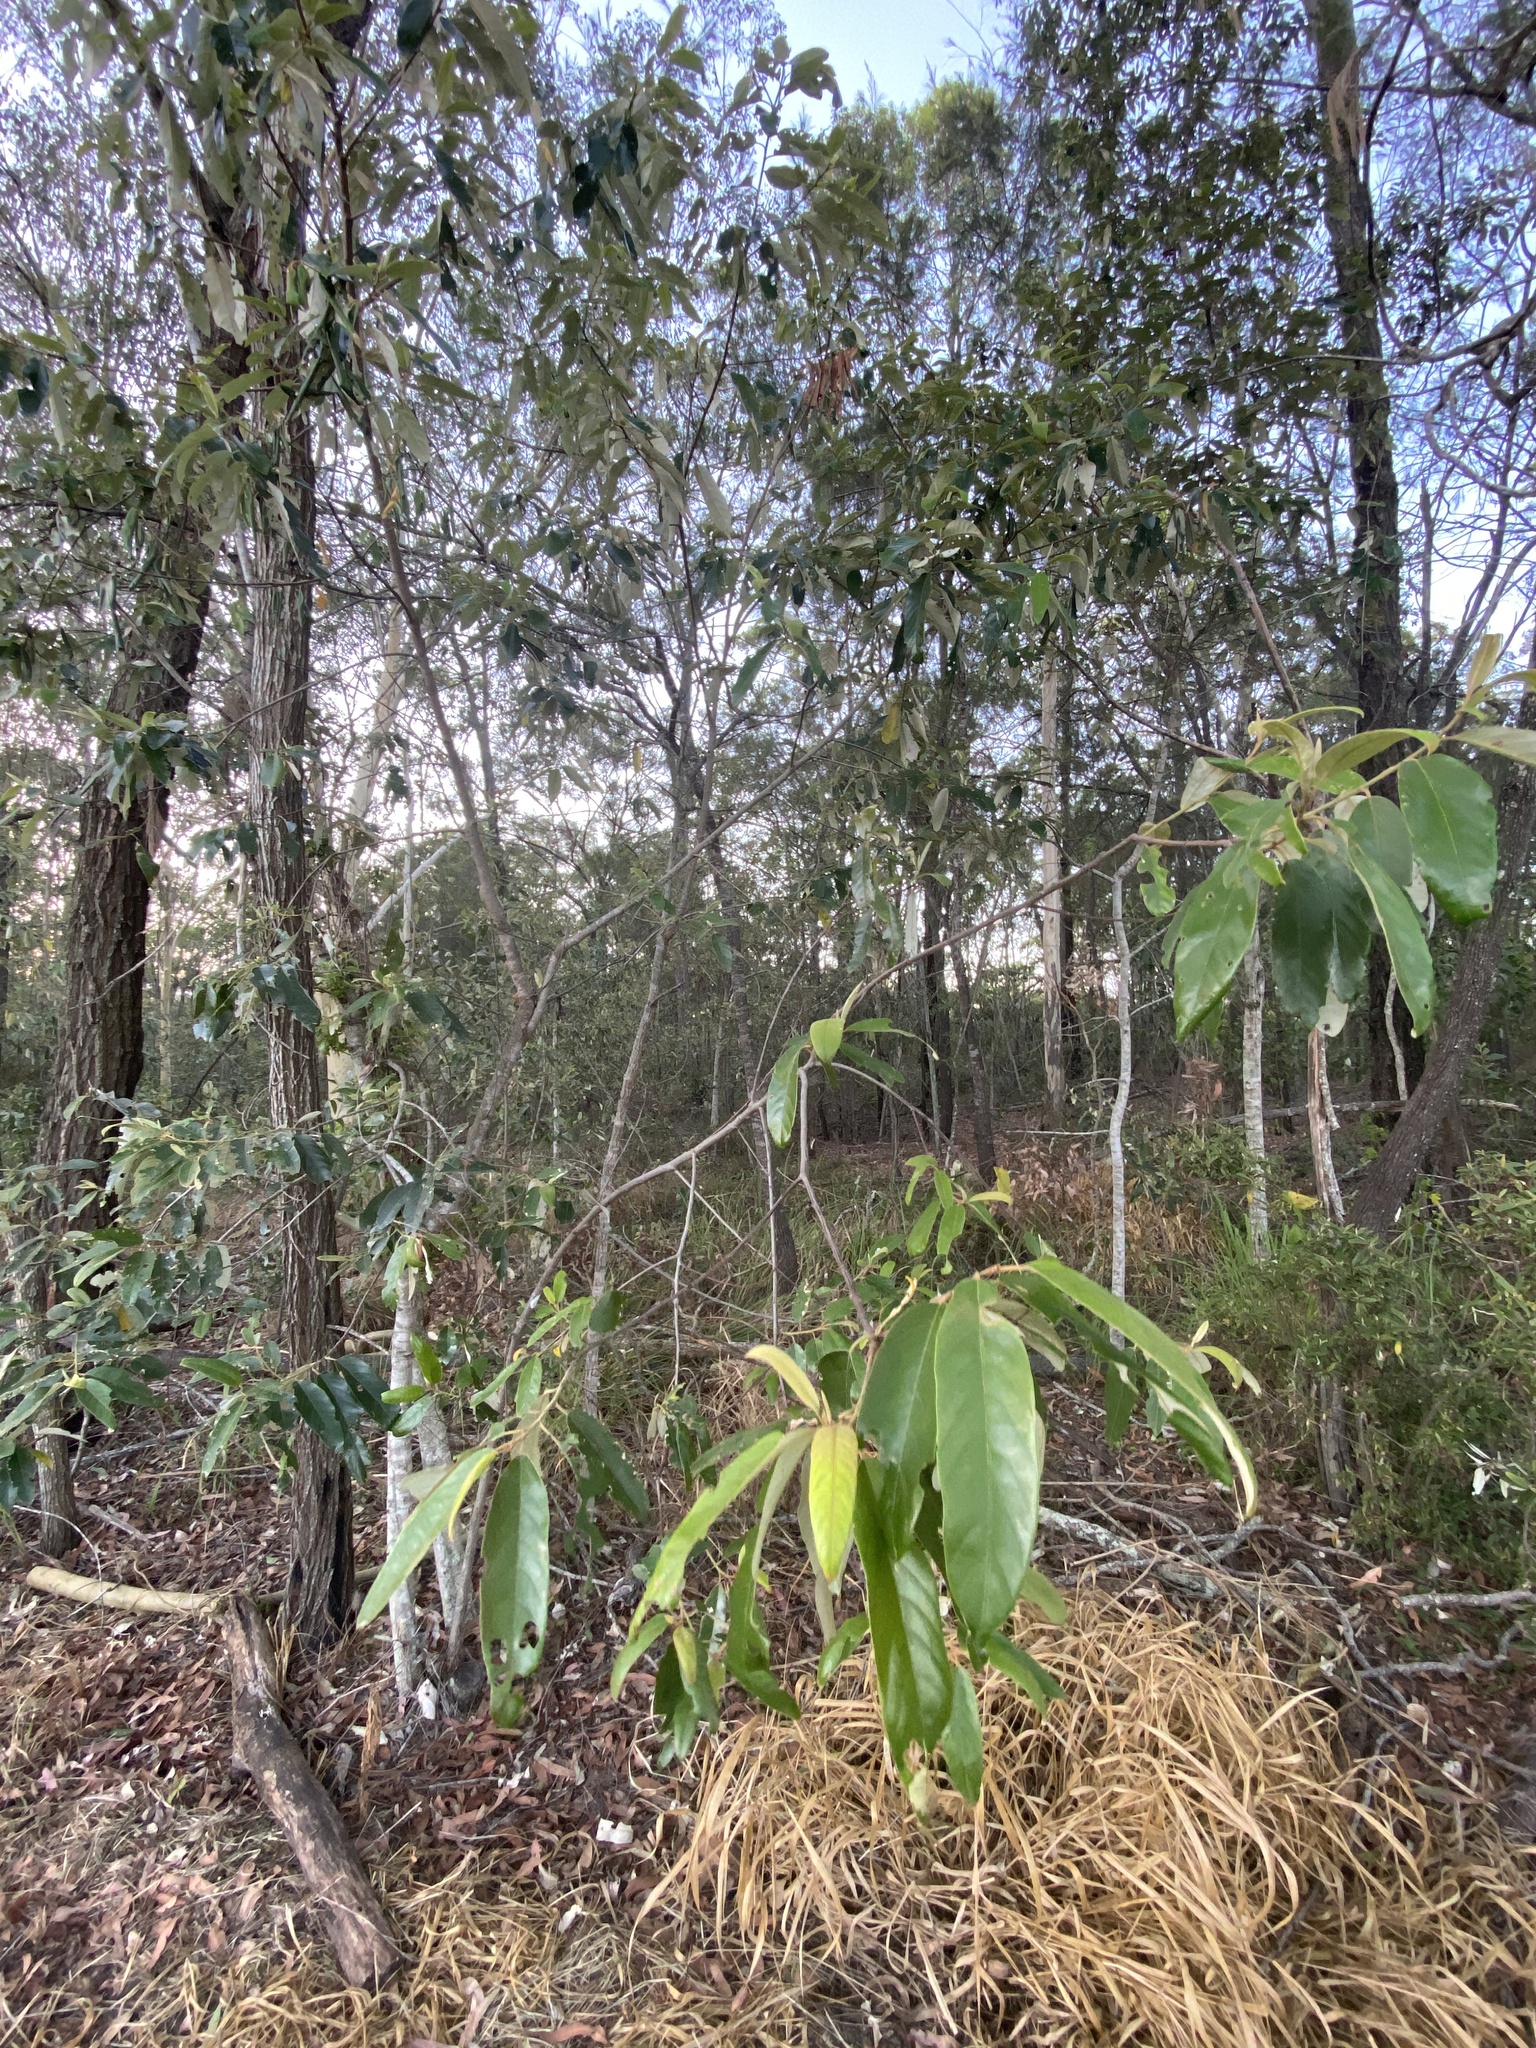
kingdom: Plantae
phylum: Tracheophyta
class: Magnoliopsida
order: Rosales
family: Rhamnaceae
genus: Alphitonia
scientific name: Alphitonia excelsa
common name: Red ash
